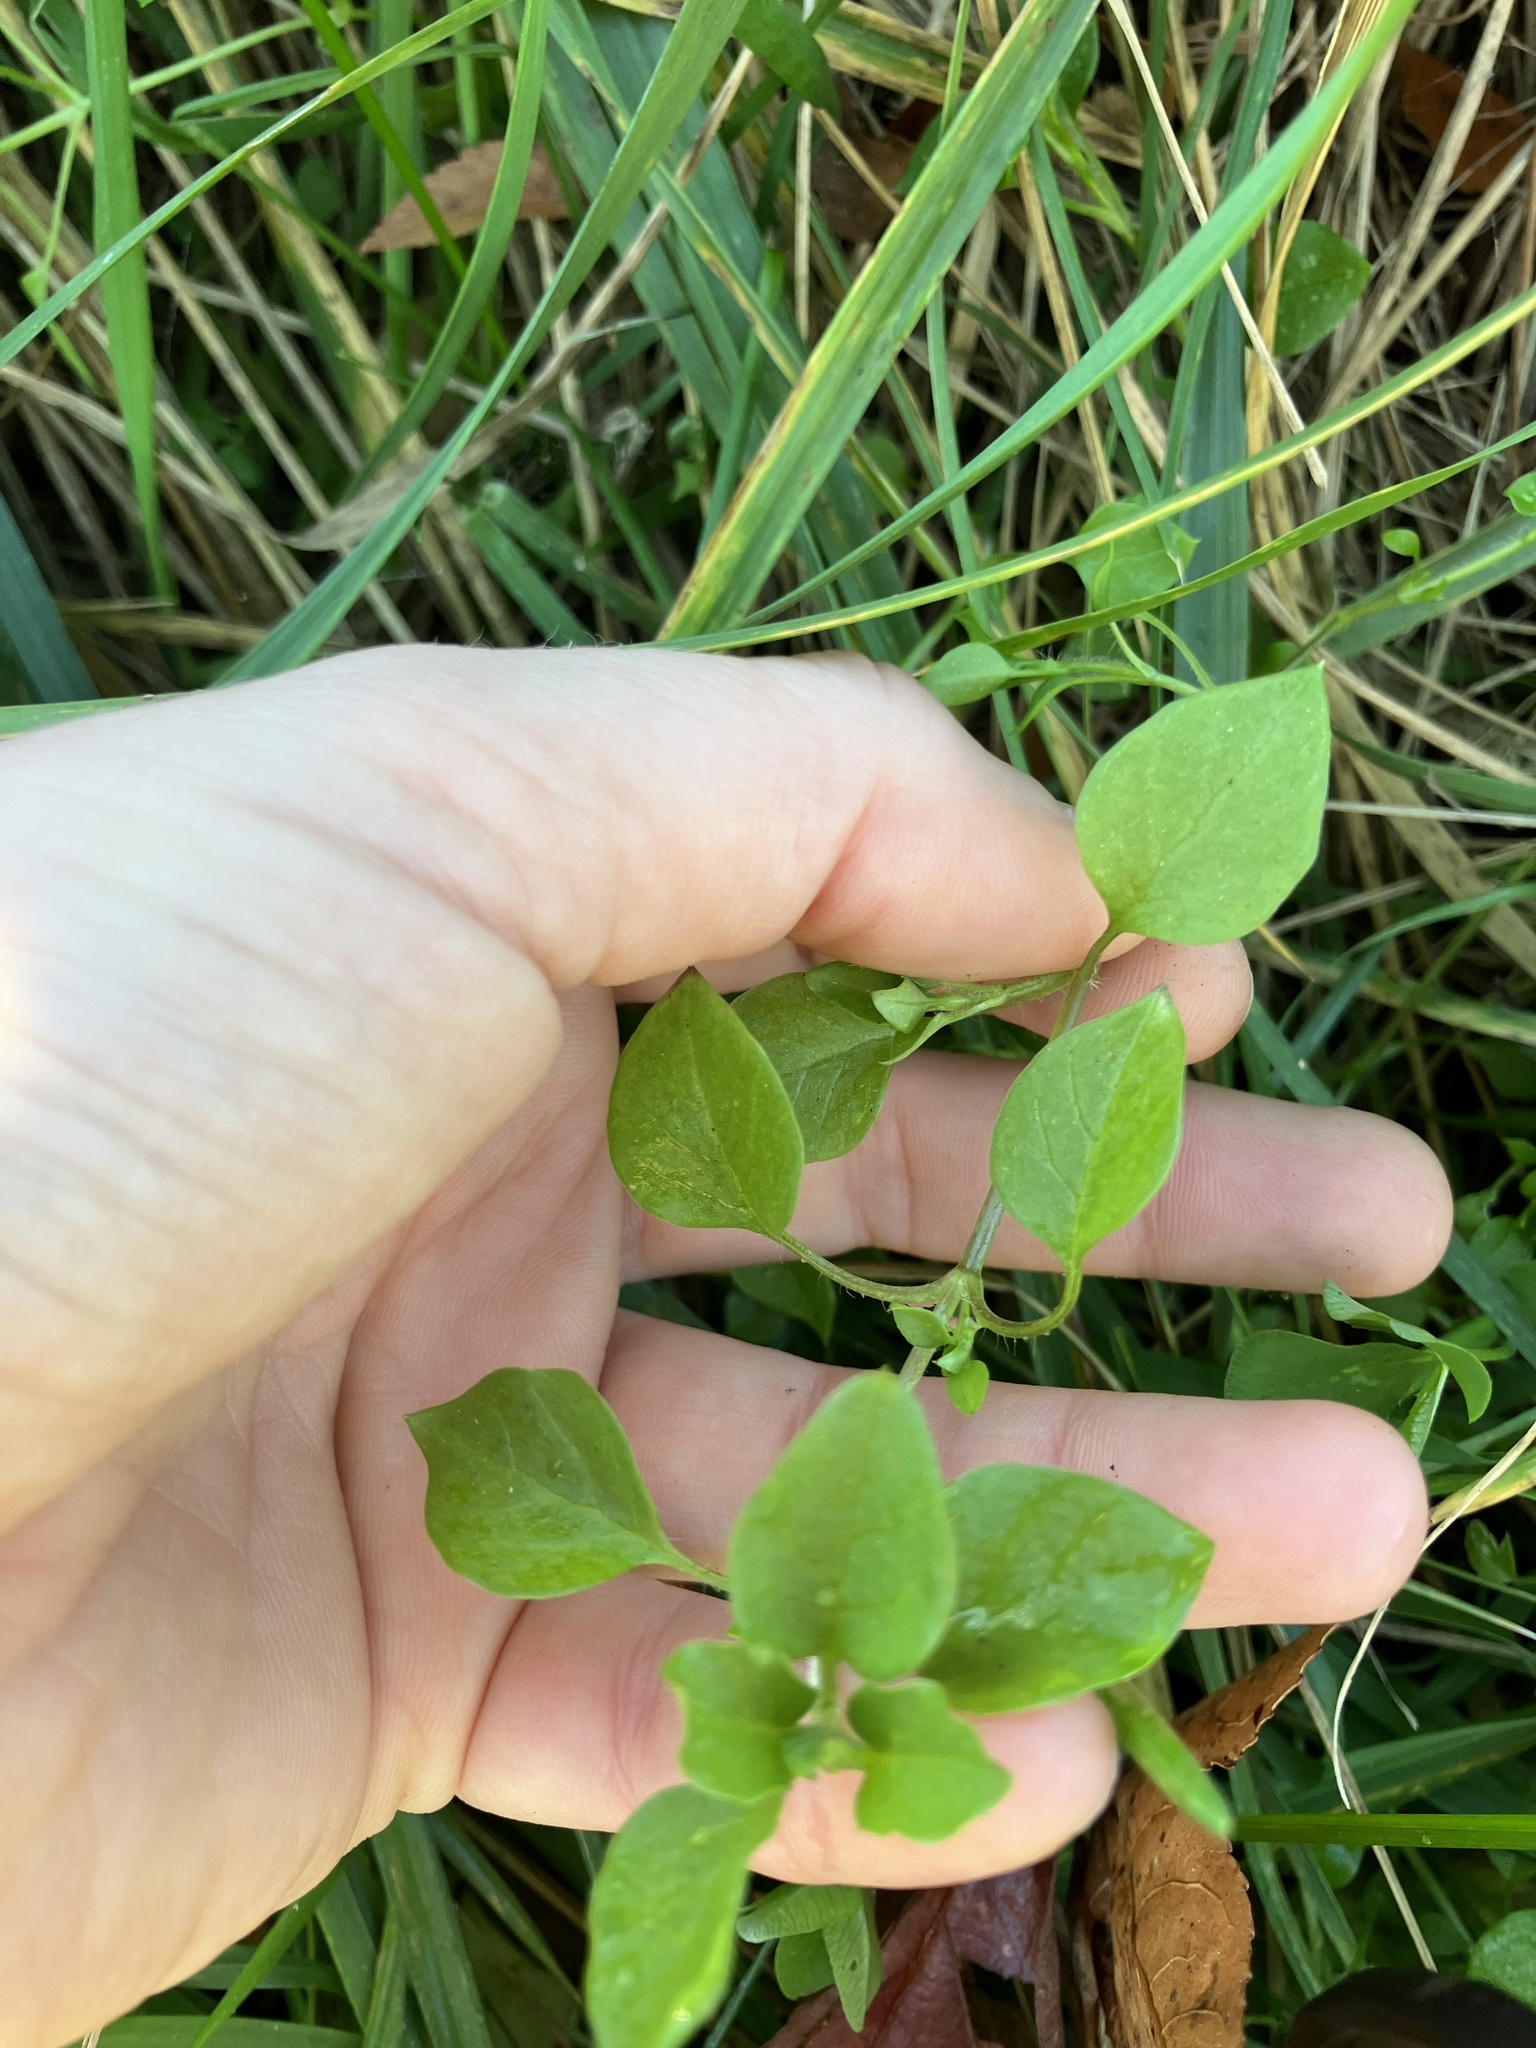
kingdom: Plantae
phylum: Tracheophyta
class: Magnoliopsida
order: Caryophyllales
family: Caryophyllaceae
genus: Stellaria
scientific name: Stellaria media
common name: Common chickweed
